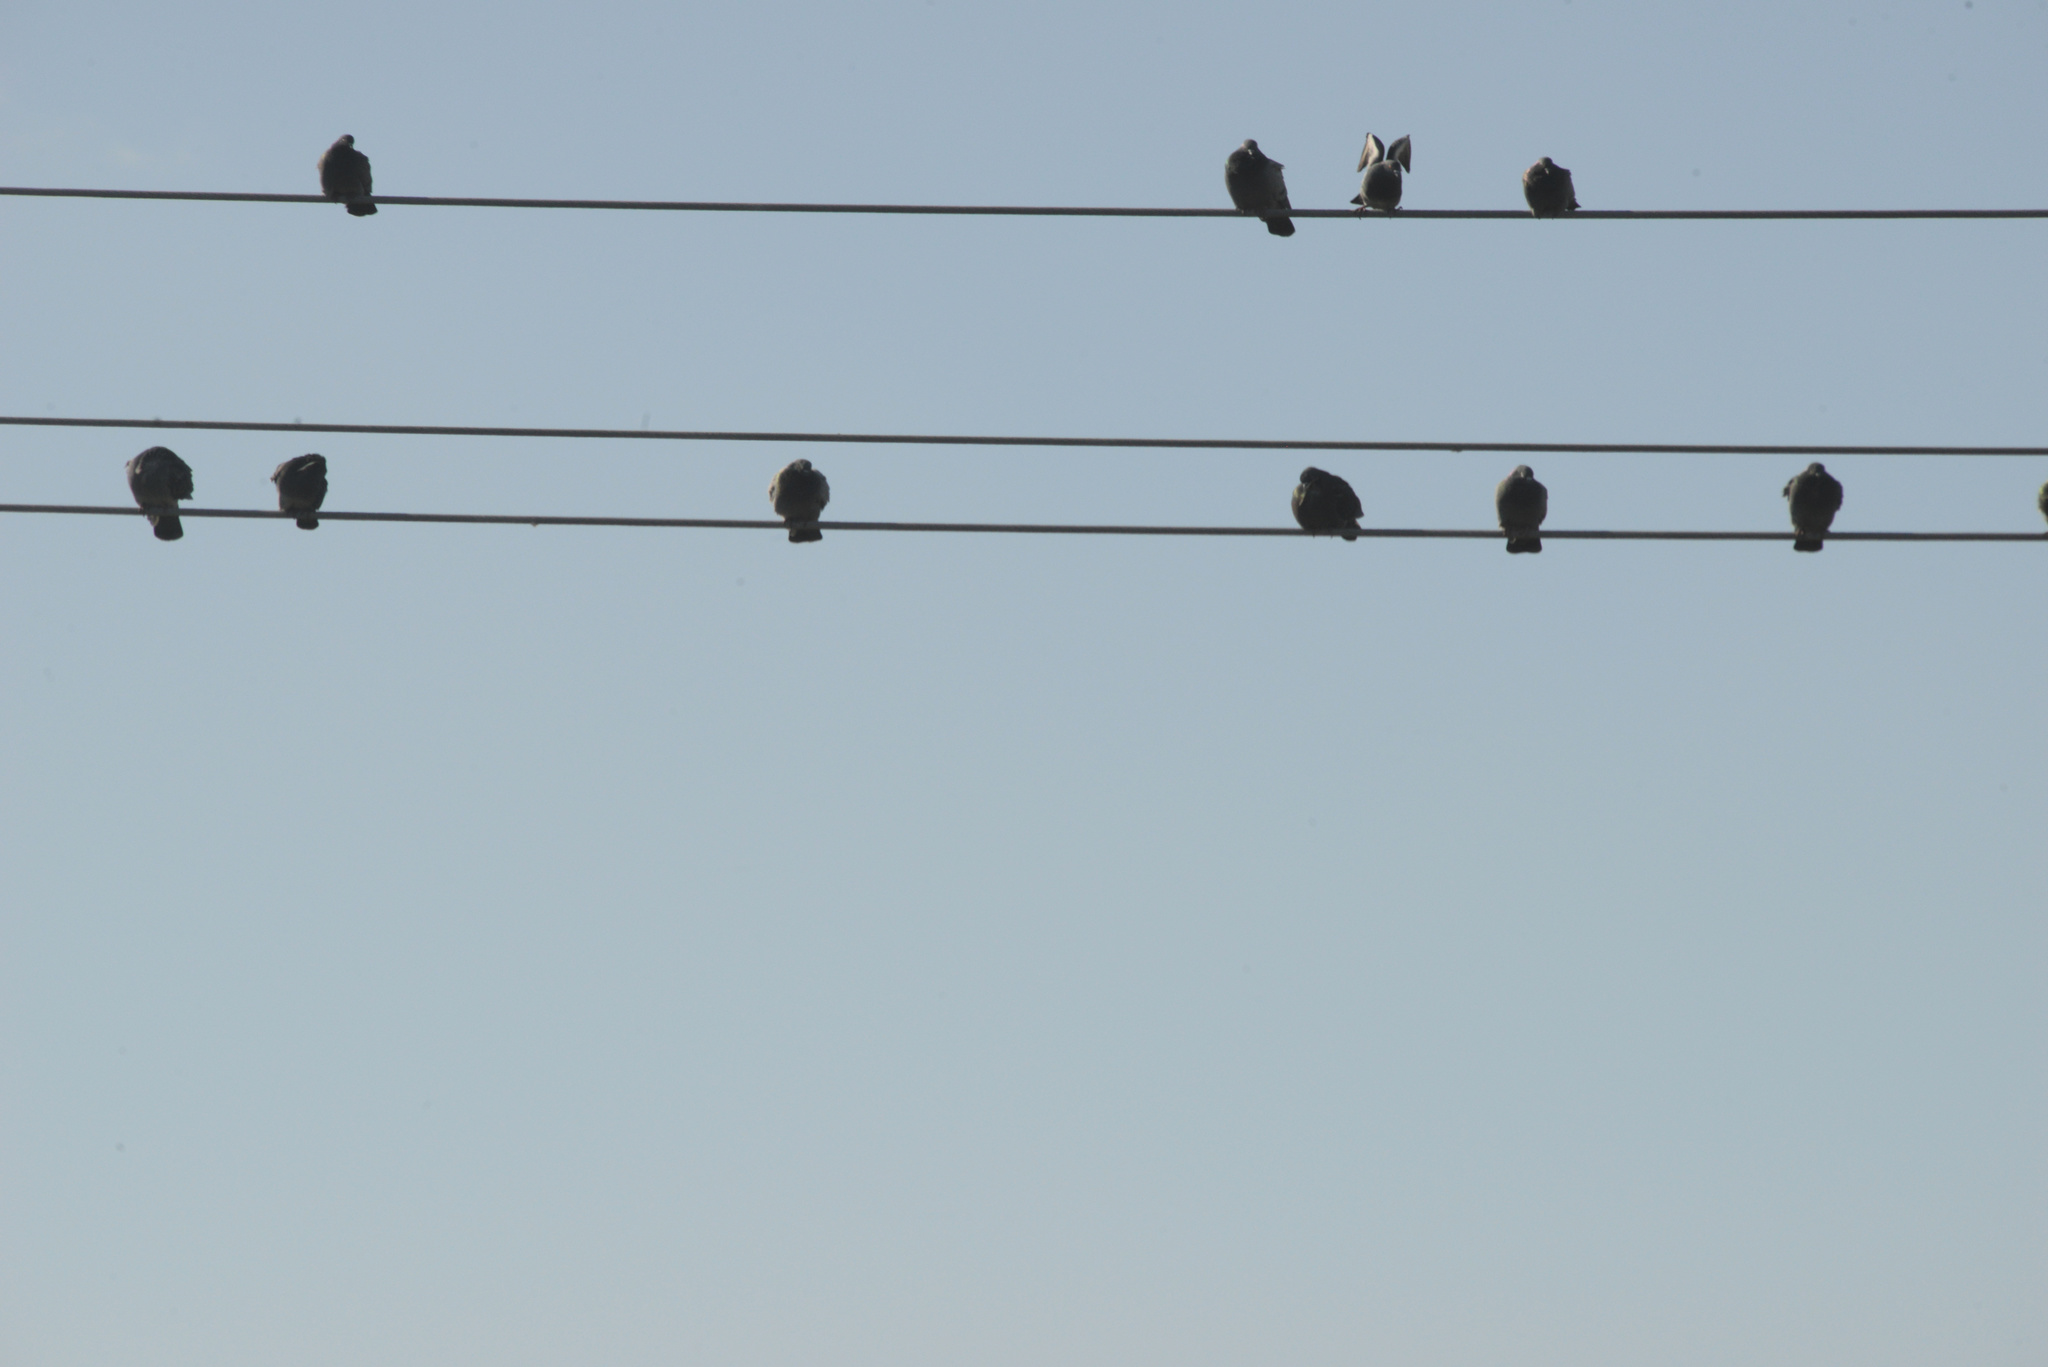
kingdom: Animalia
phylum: Chordata
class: Aves
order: Columbiformes
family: Columbidae
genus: Columba
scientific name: Columba livia
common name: Rock pigeon
